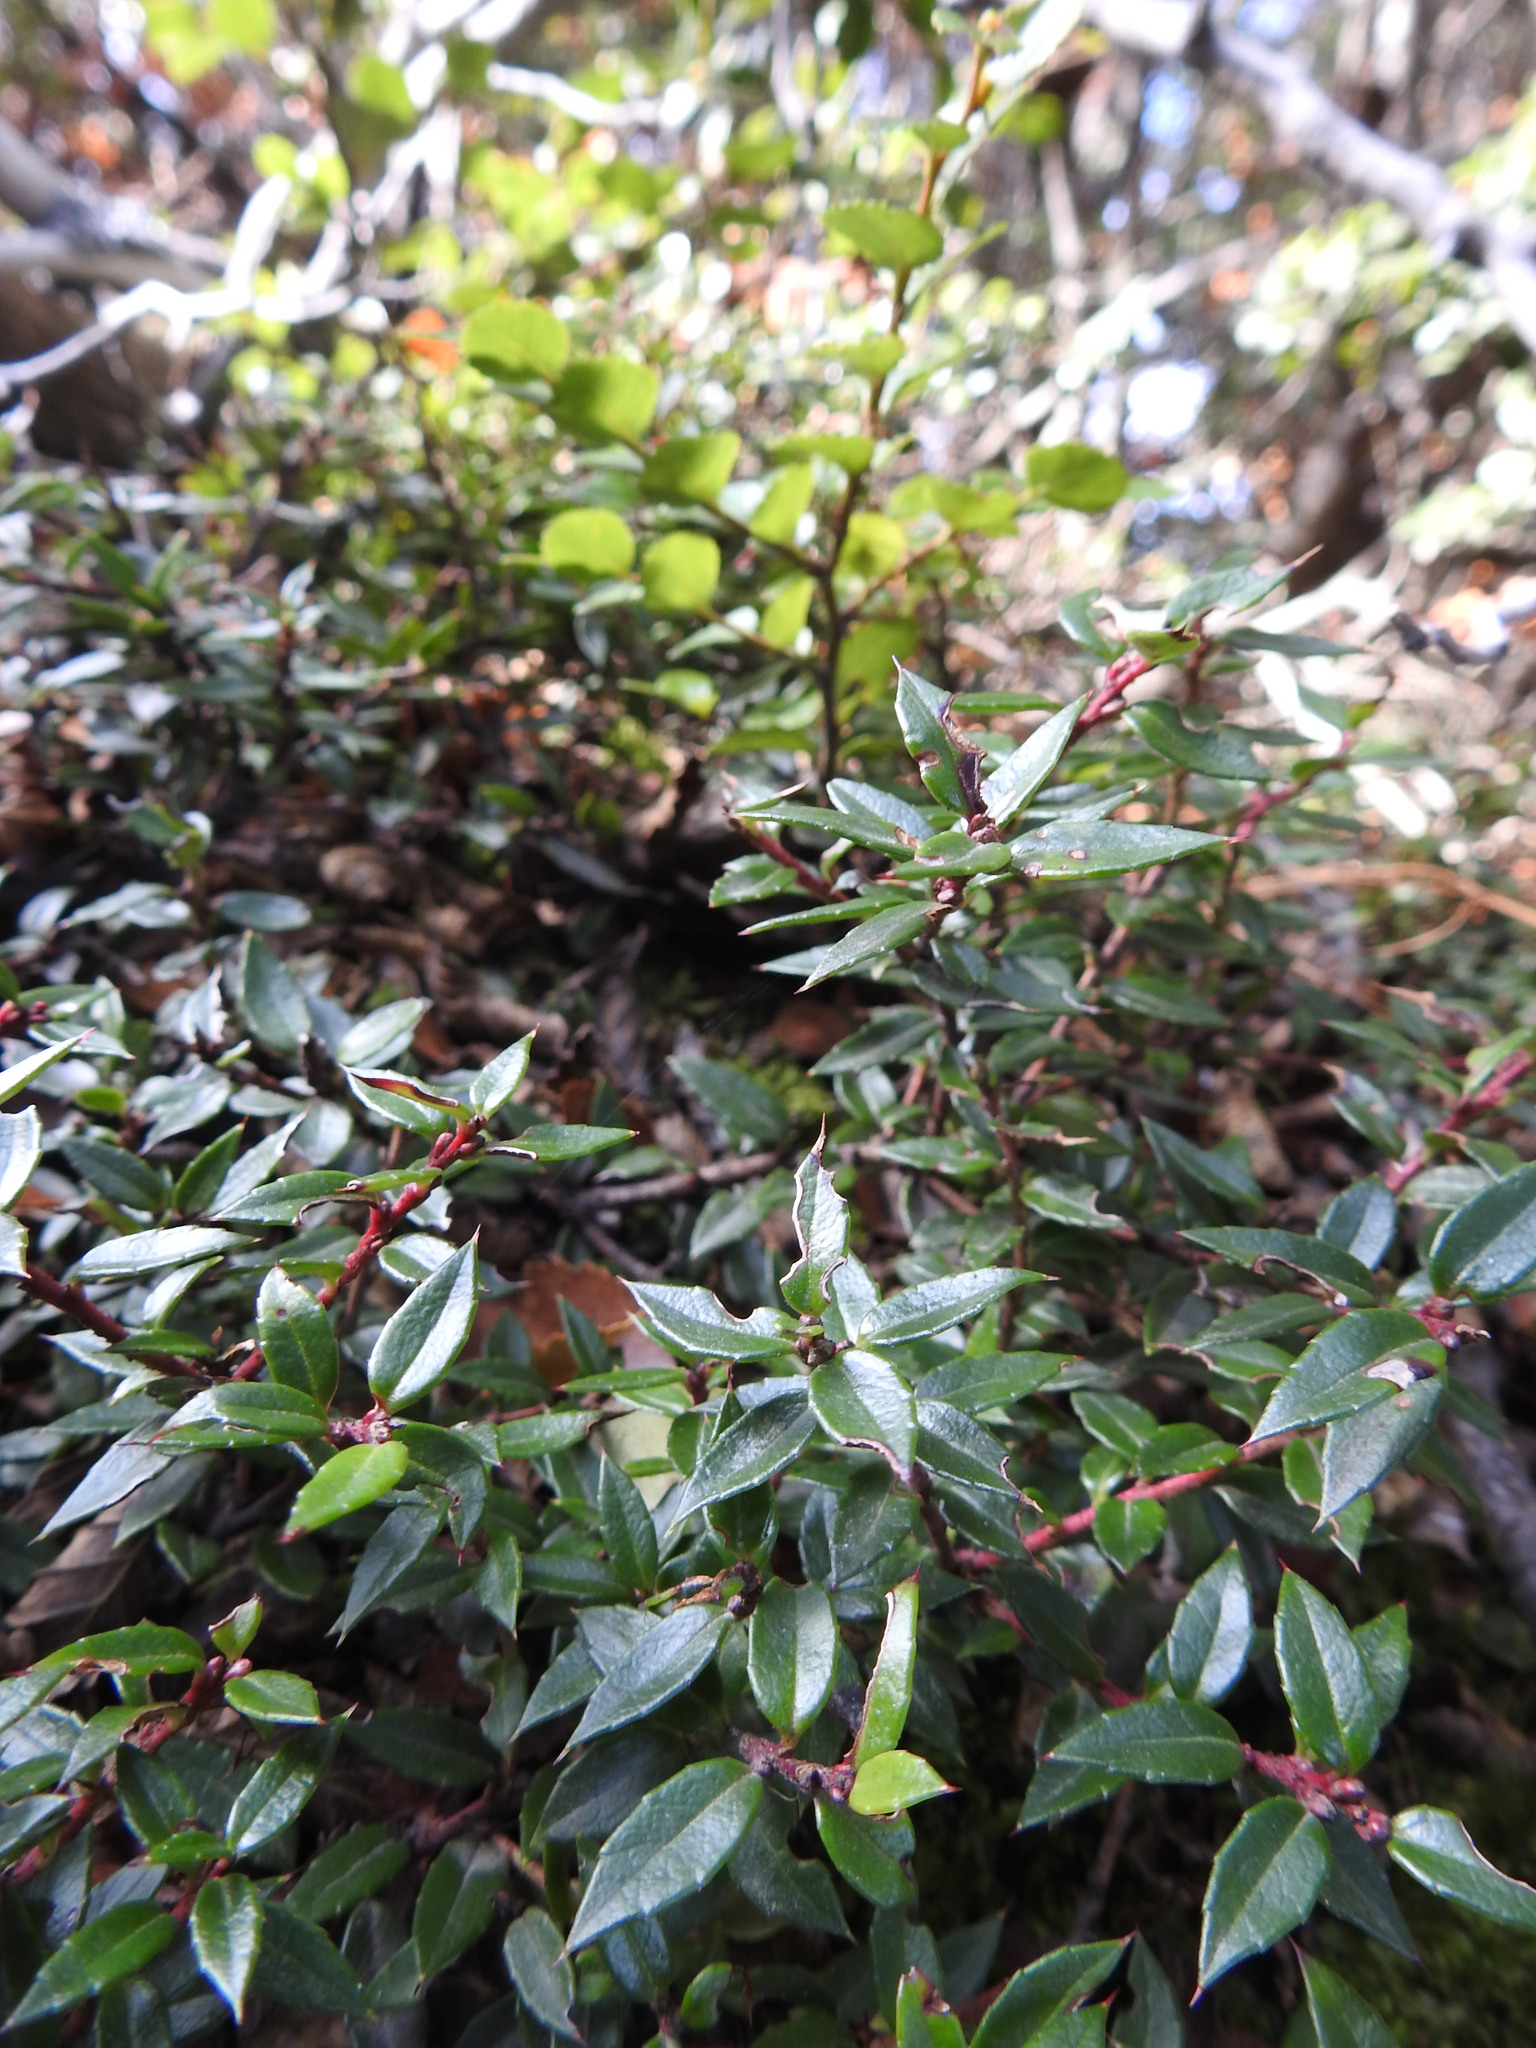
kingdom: Plantae
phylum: Tracheophyta
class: Magnoliopsida
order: Ericales
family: Ericaceae
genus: Gaultheria
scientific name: Gaultheria mucronata
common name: Prickly heath
